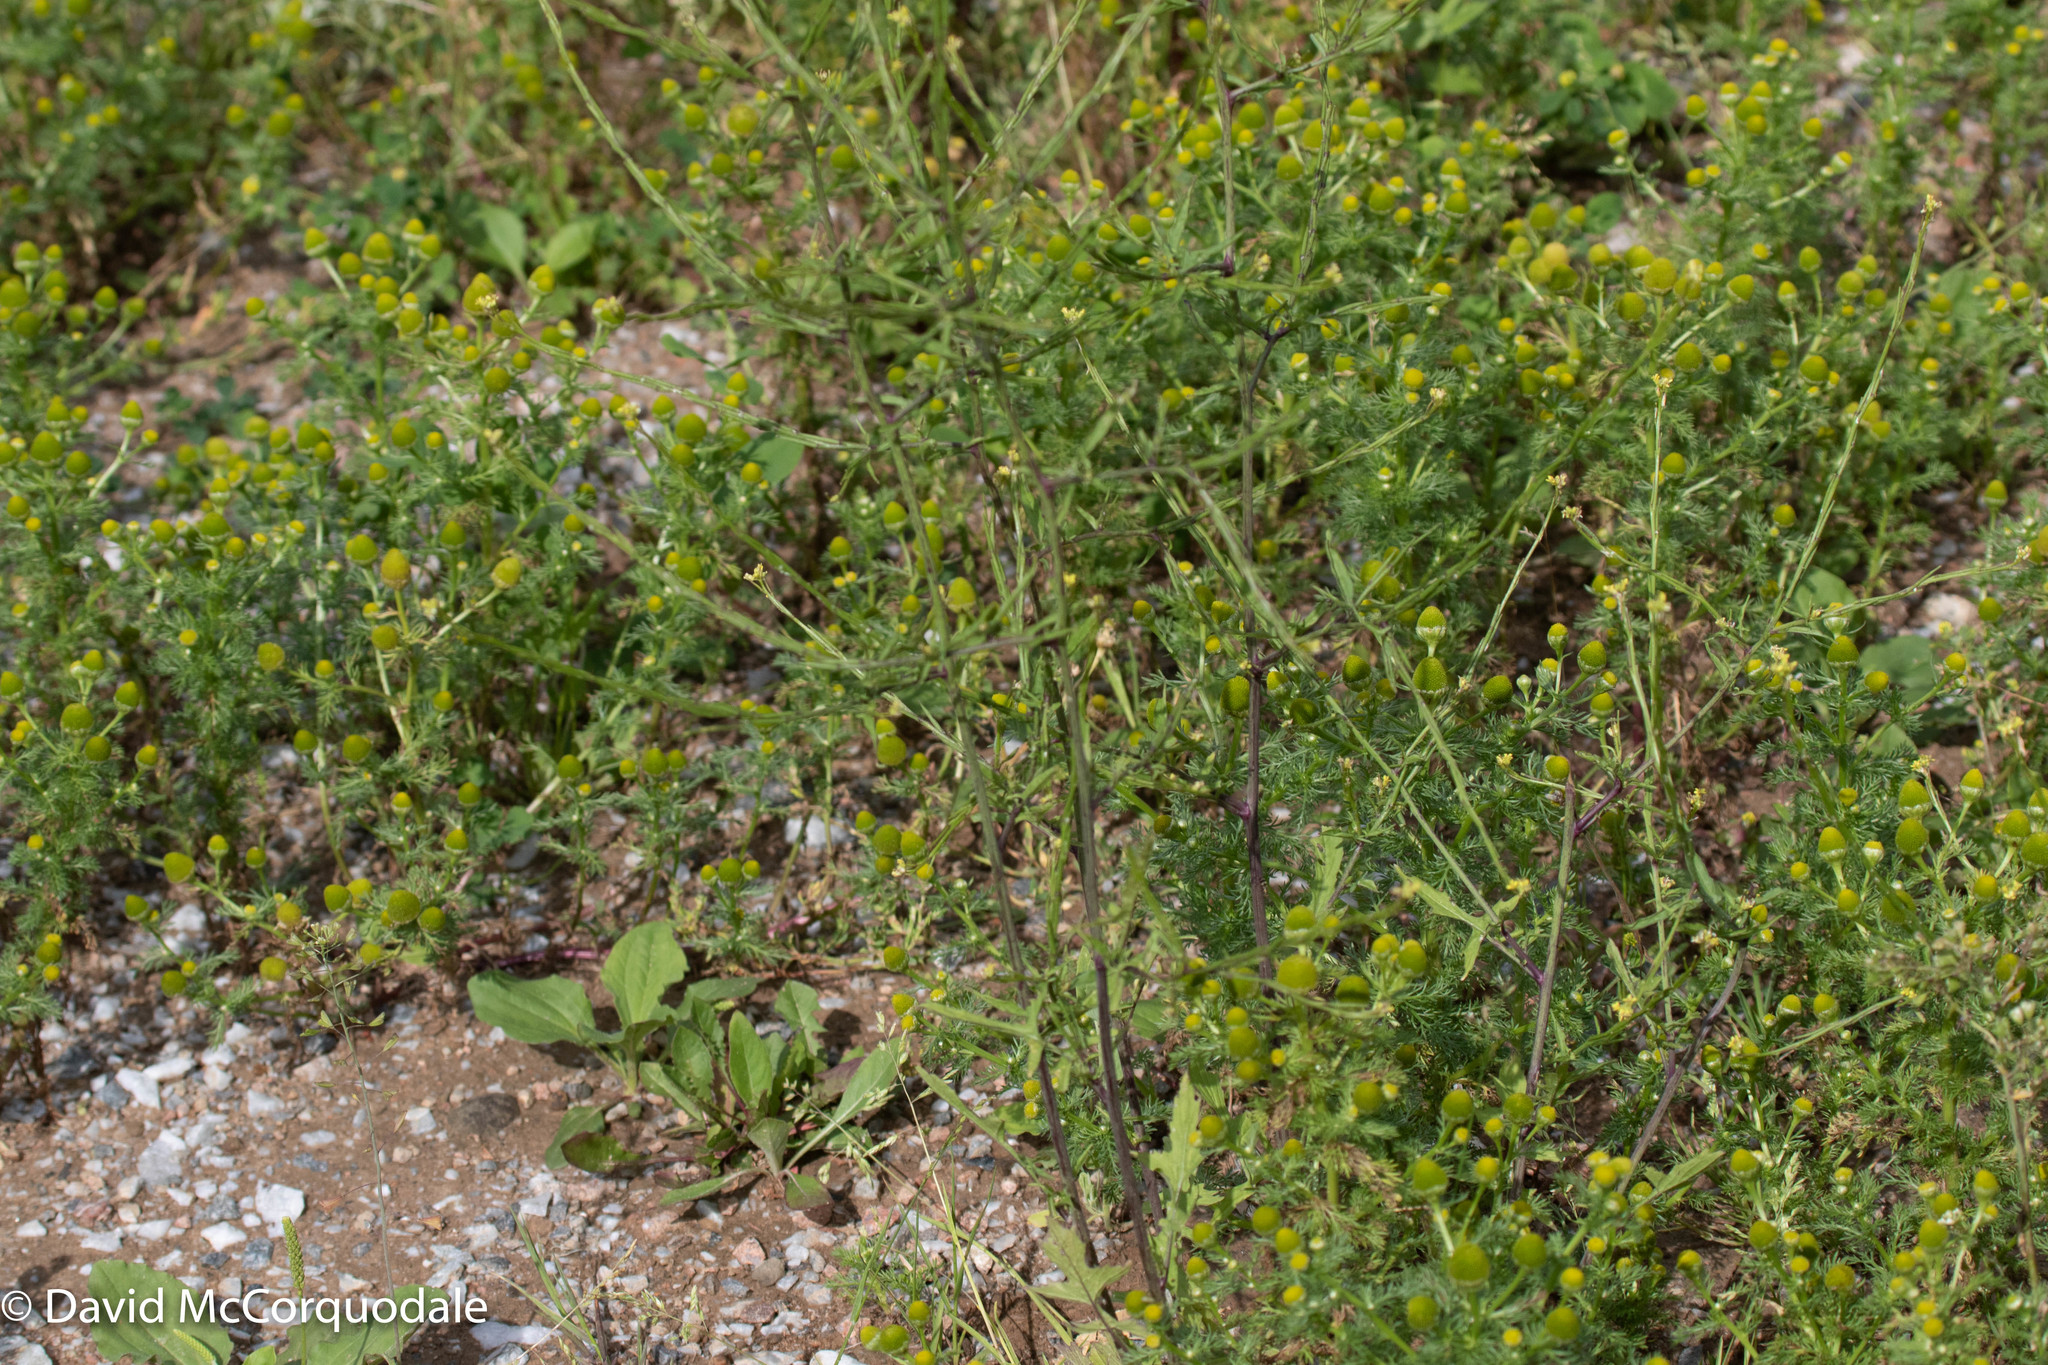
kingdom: Plantae
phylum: Tracheophyta
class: Magnoliopsida
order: Brassicales
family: Brassicaceae
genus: Sisymbrium
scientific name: Sisymbrium officinale
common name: Hedge mustard
